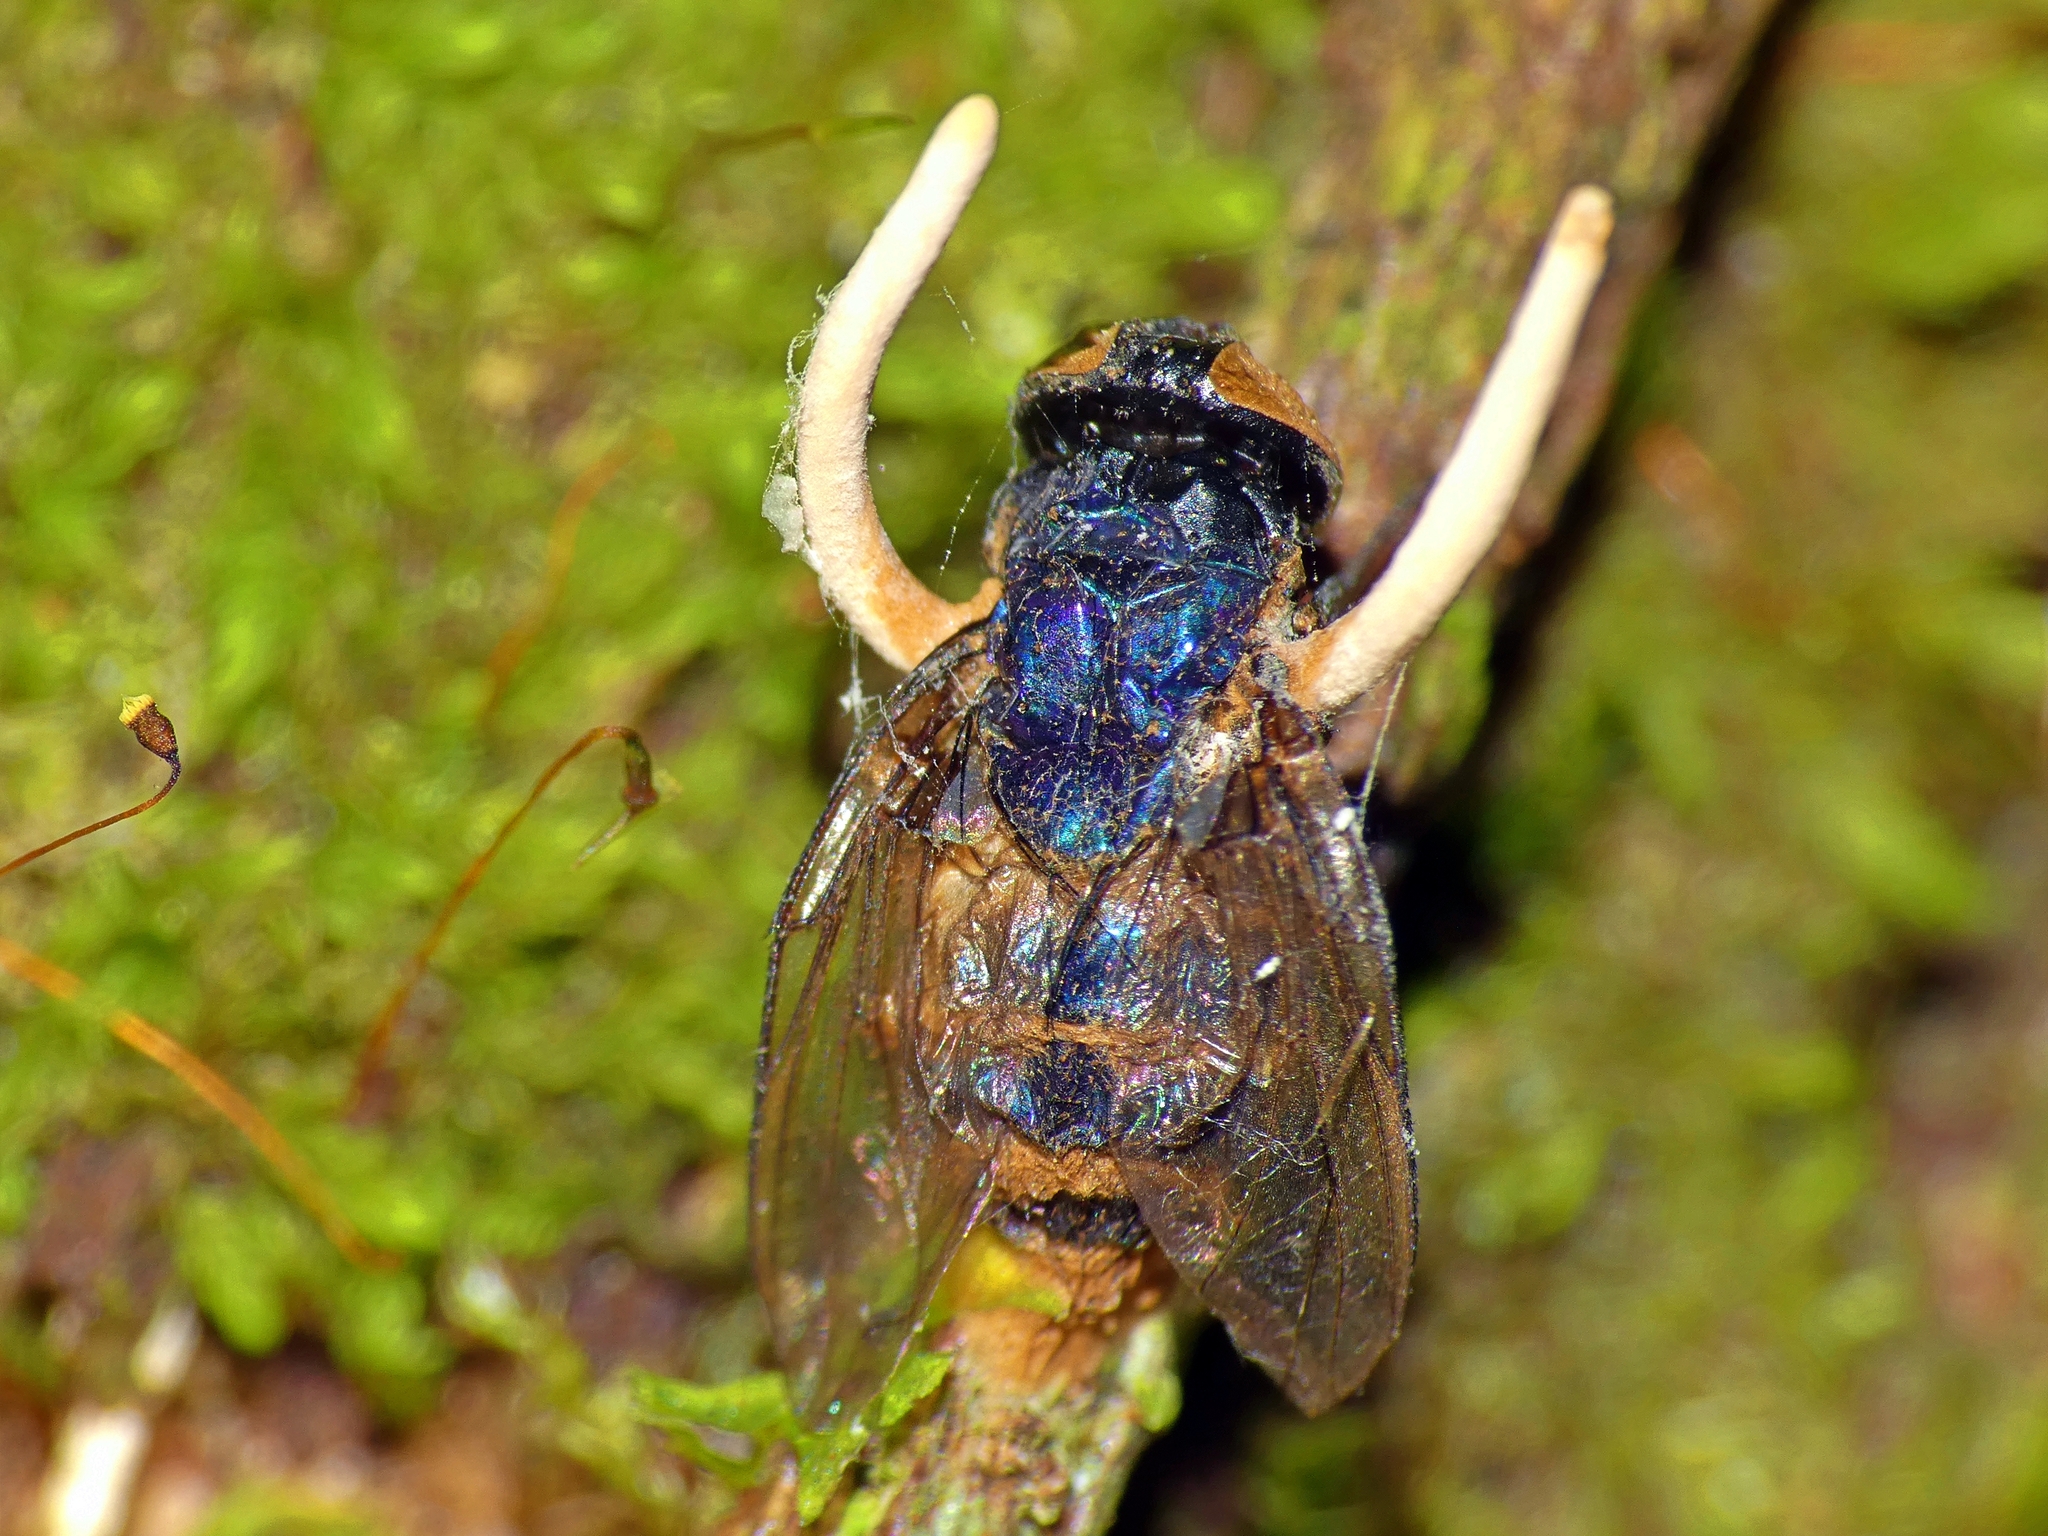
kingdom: Fungi
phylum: Ascomycota
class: Sordariomycetes
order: Hypocreales
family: Ophiocordycipitaceae
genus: Ophiocordyceps
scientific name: Ophiocordyceps dipterigena
